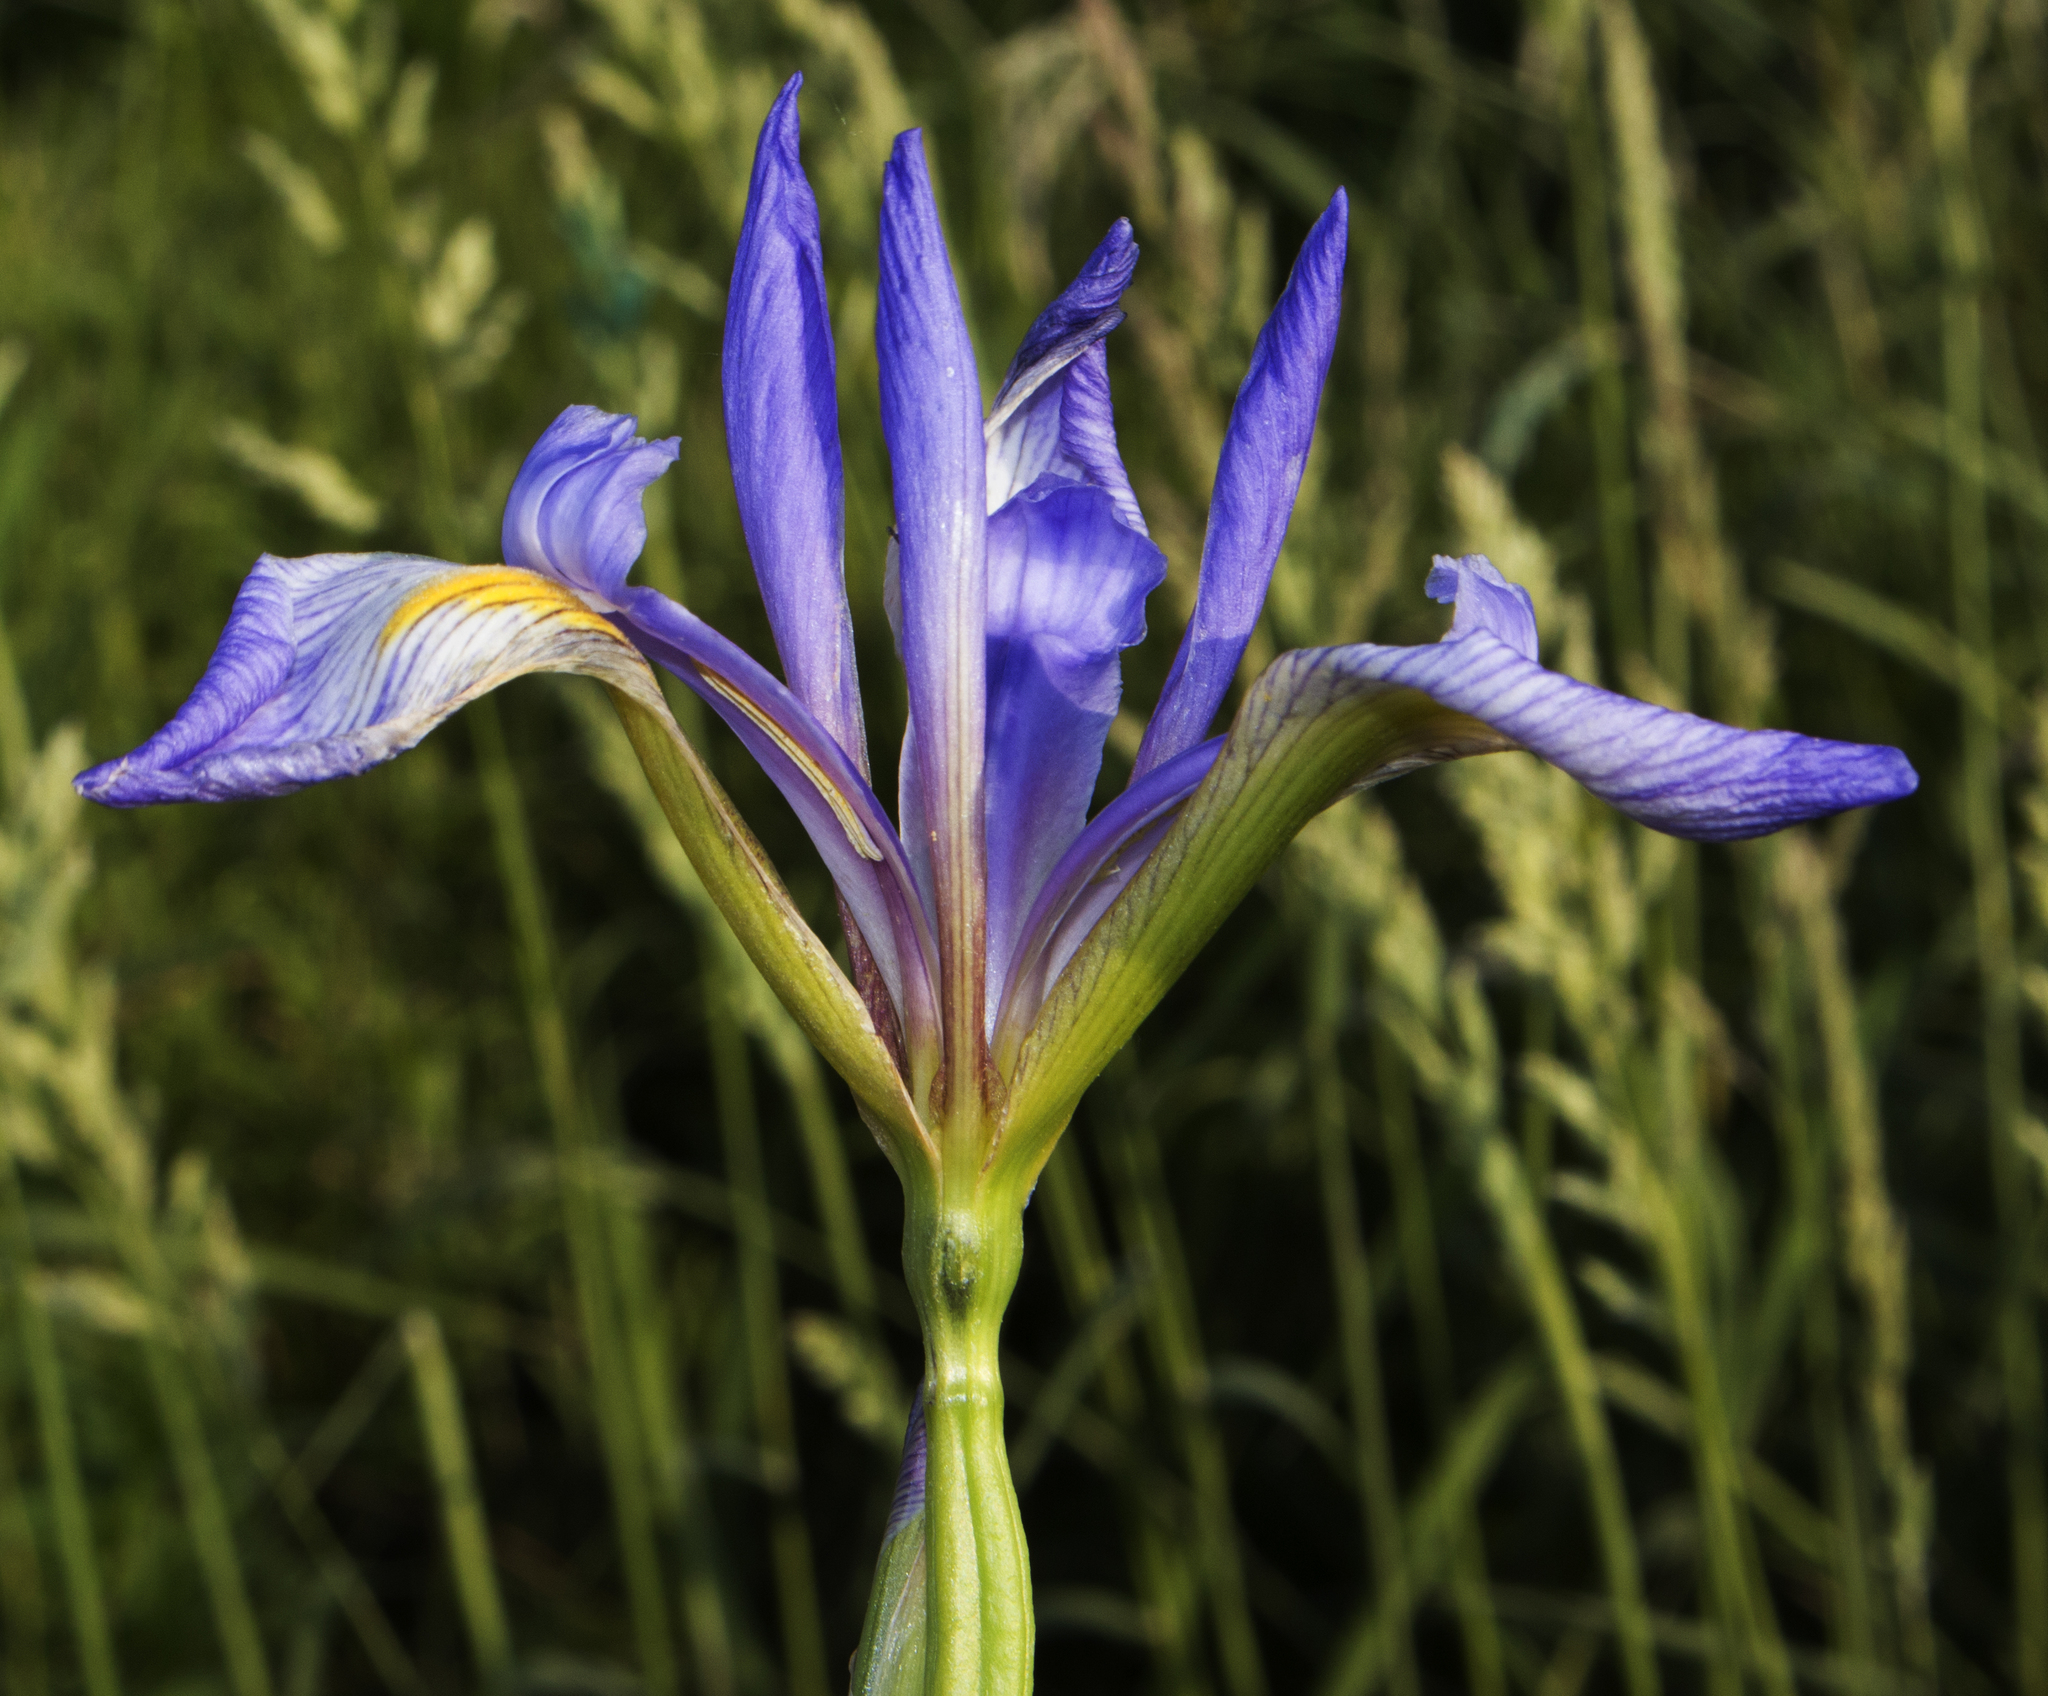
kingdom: Plantae
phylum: Tracheophyta
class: Liliopsida
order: Asparagales
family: Iridaceae
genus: Iris
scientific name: Iris virginica
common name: Southern blue flag
